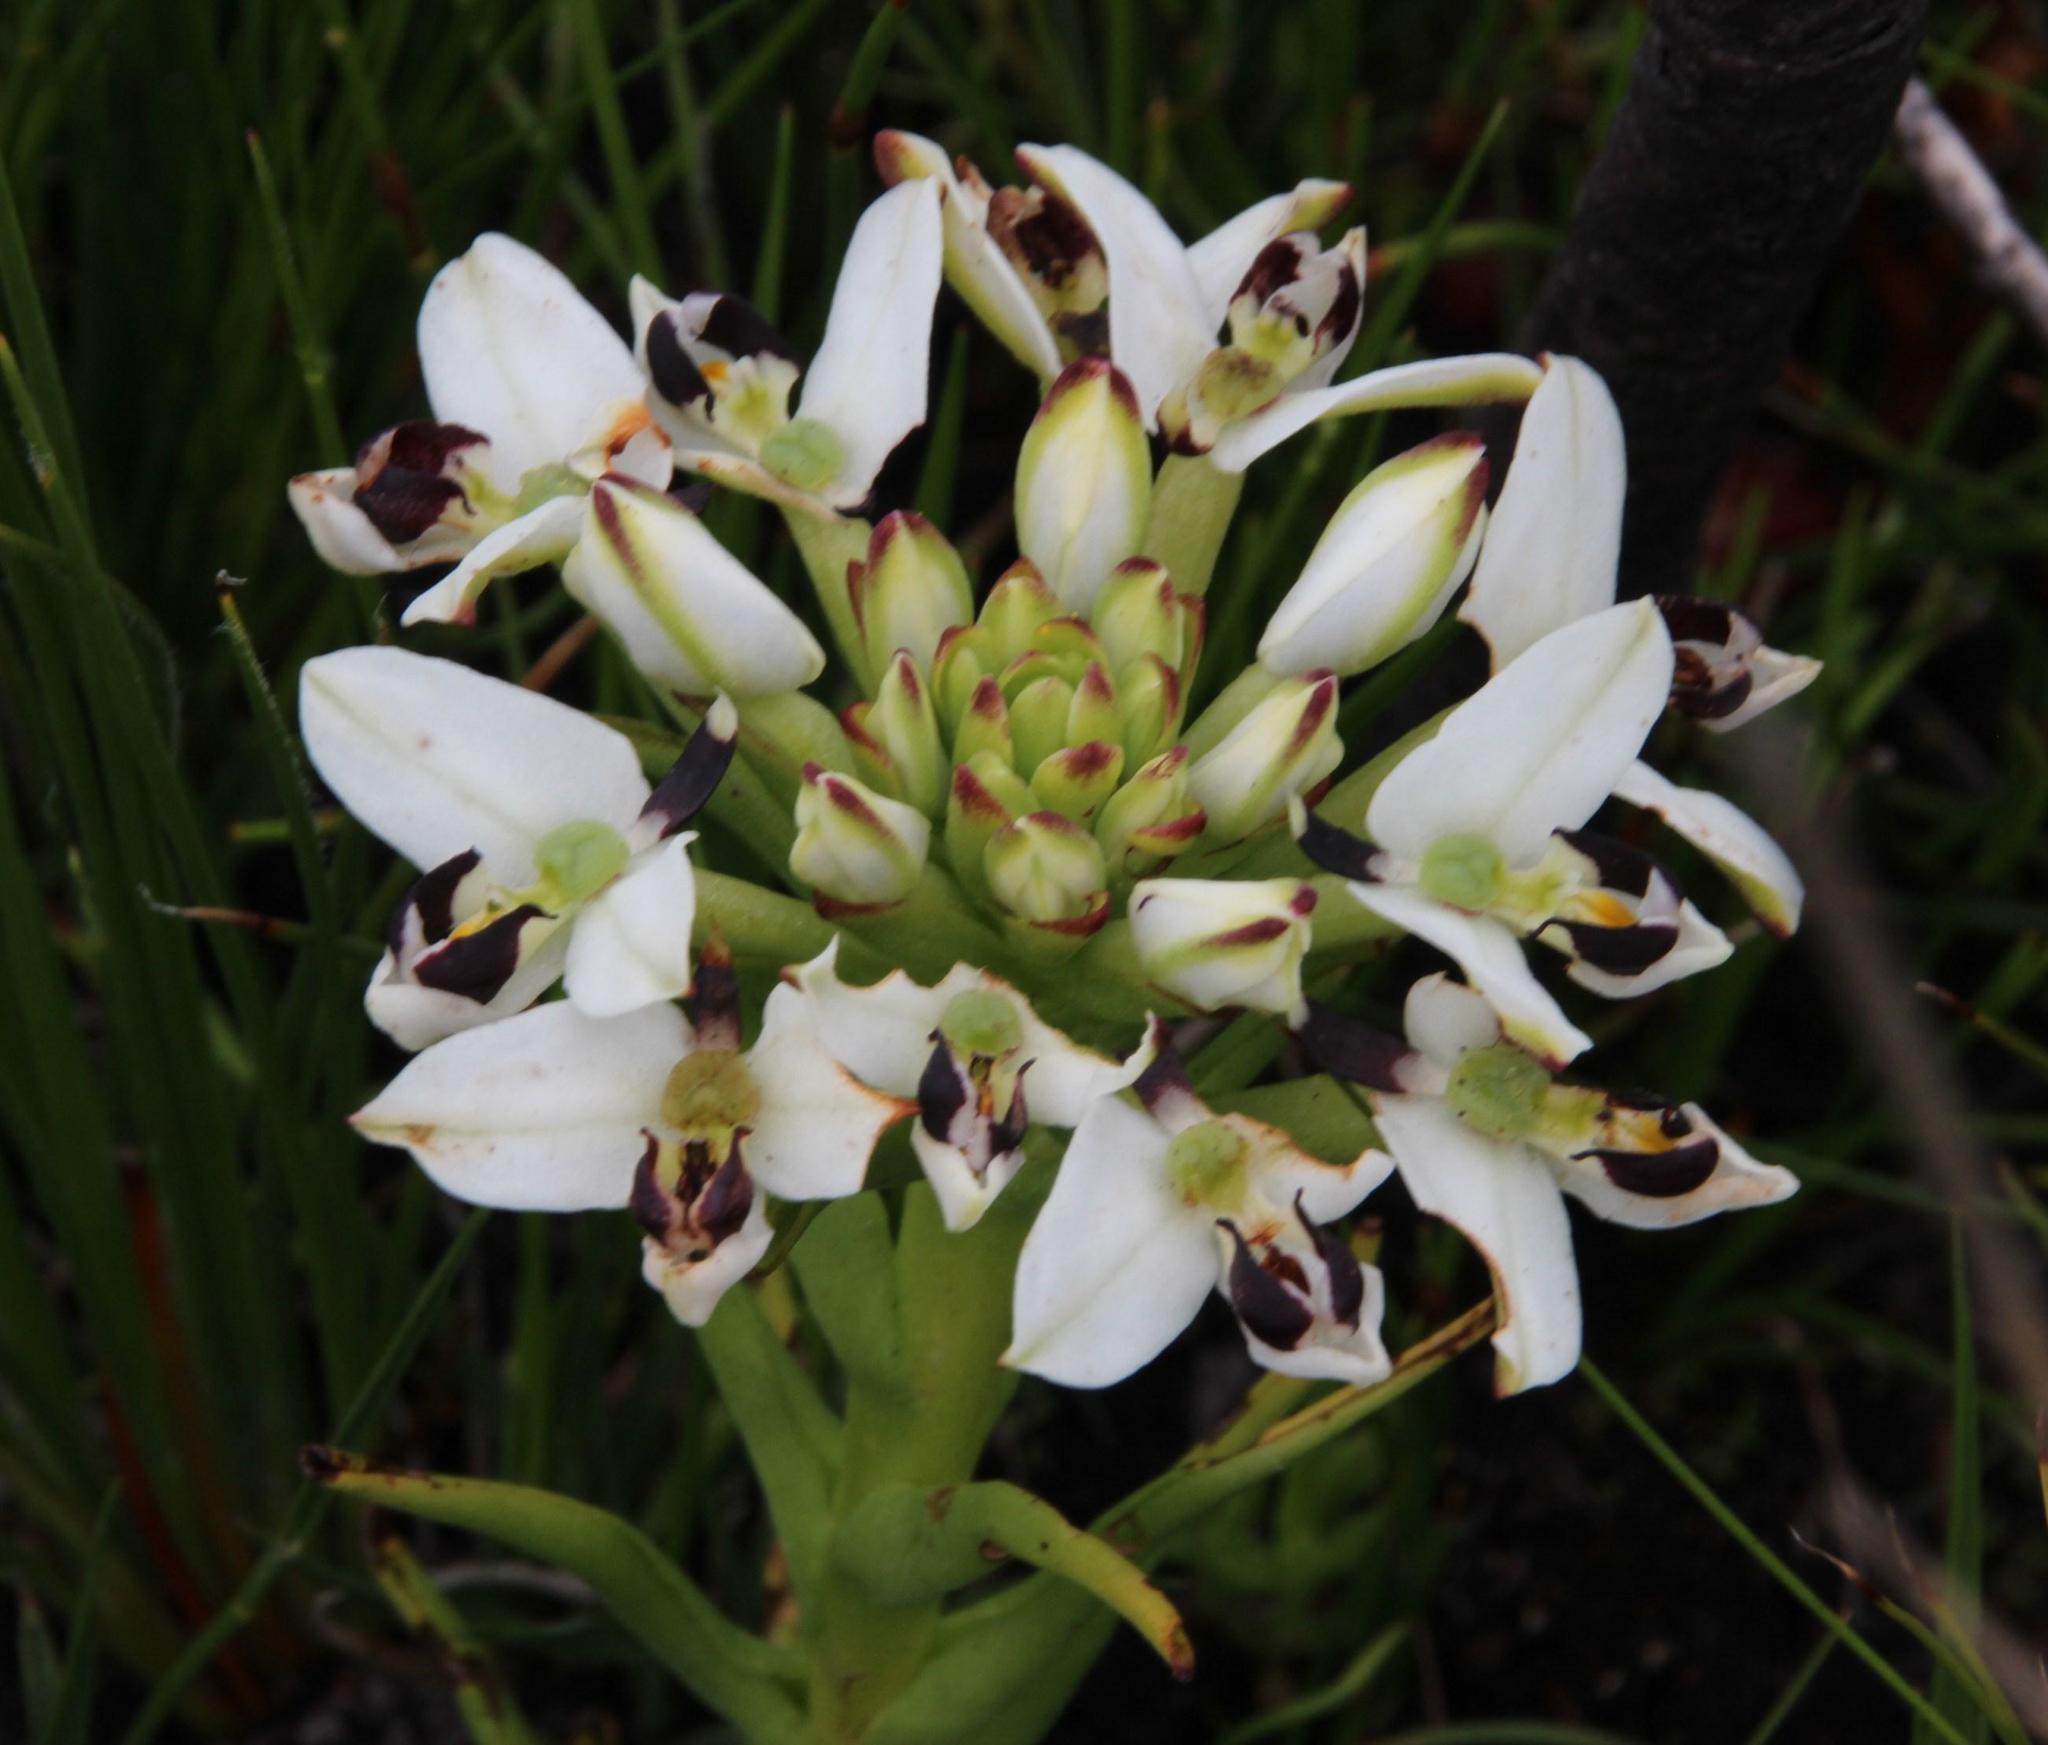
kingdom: Plantae
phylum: Tracheophyta
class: Liliopsida
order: Asparagales
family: Orchidaceae
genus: Disa
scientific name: Disa bivalvata
